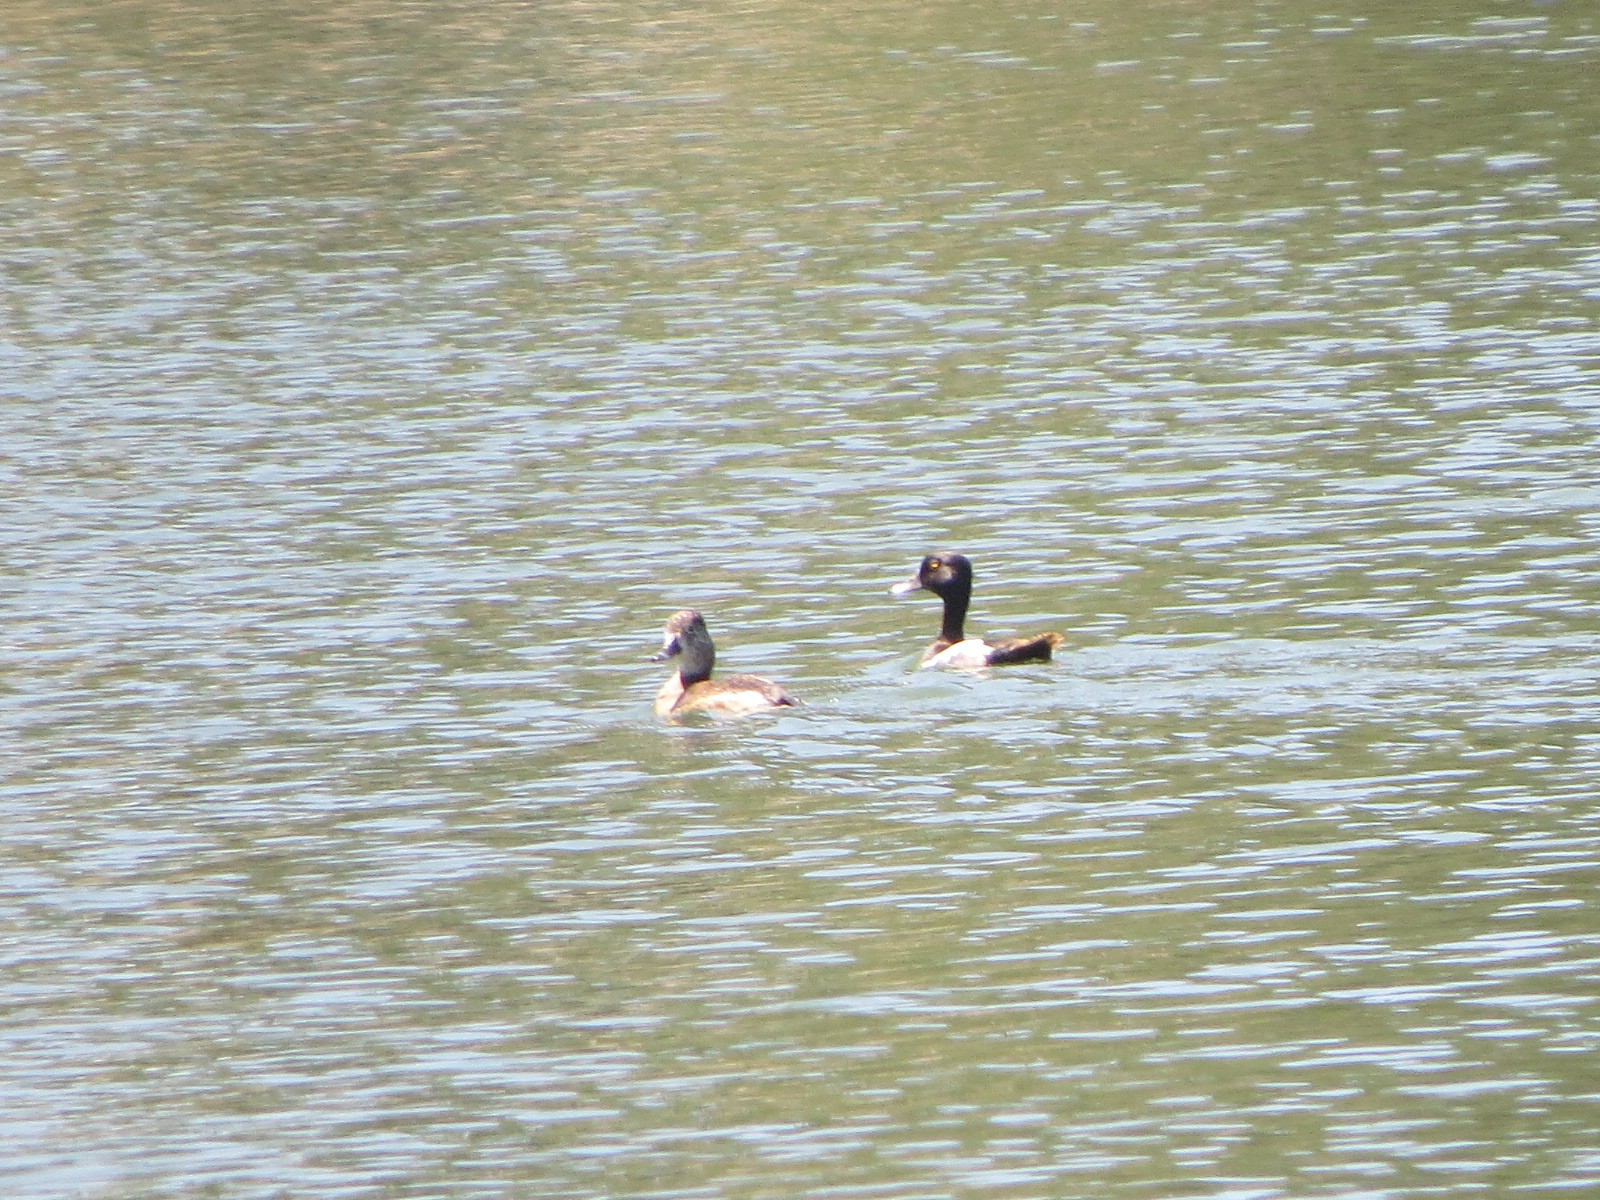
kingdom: Animalia
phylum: Chordata
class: Aves
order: Anseriformes
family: Anatidae
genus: Aythya
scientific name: Aythya collaris
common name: Ring-necked duck
